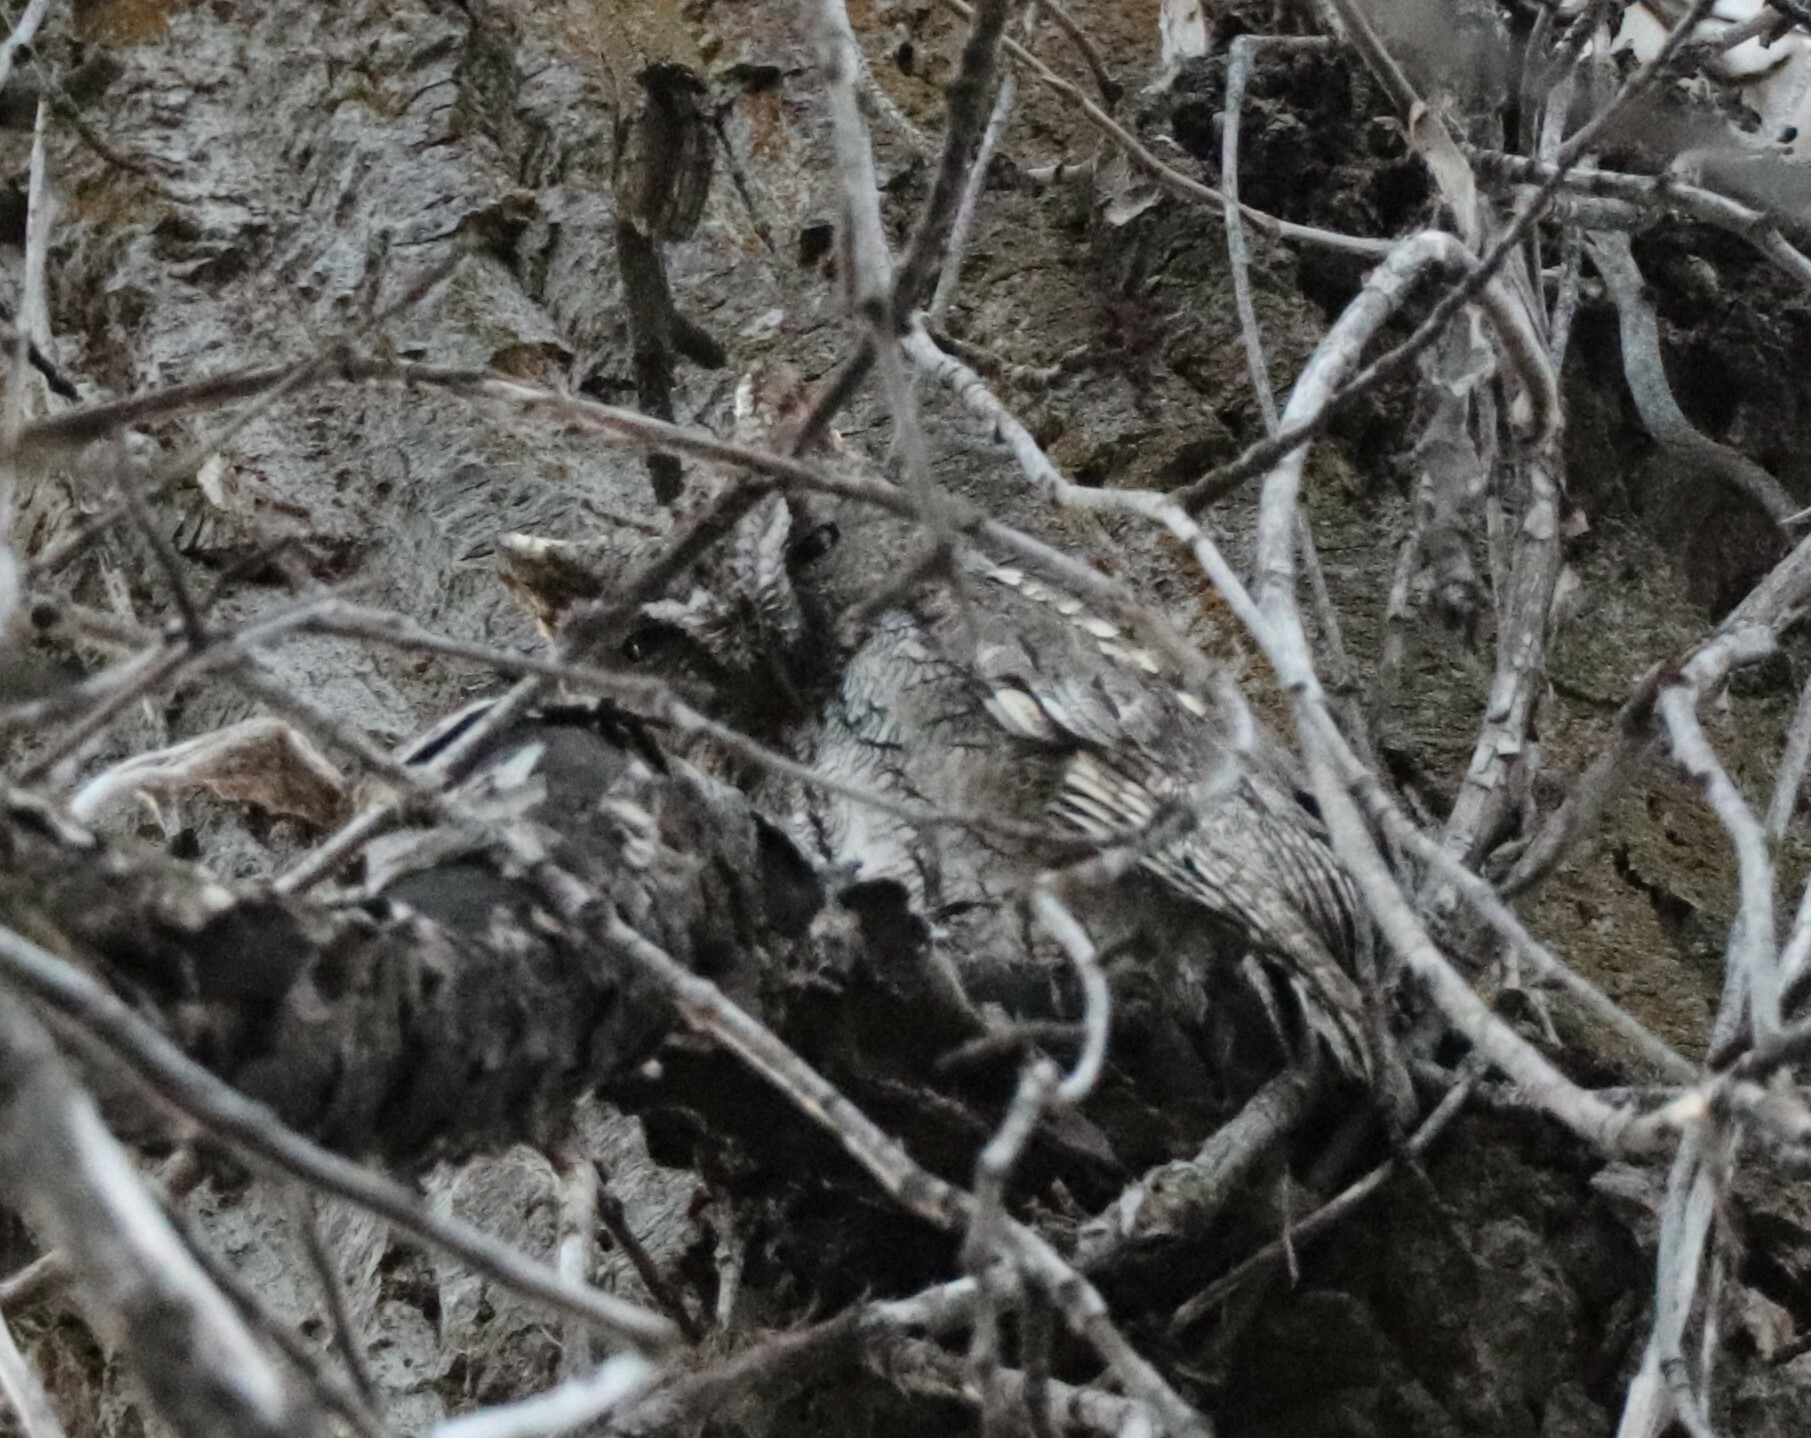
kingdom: Animalia
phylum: Chordata
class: Aves
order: Strigiformes
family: Strigidae
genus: Megascops
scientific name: Megascops kennicottii
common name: Western screech-owl
